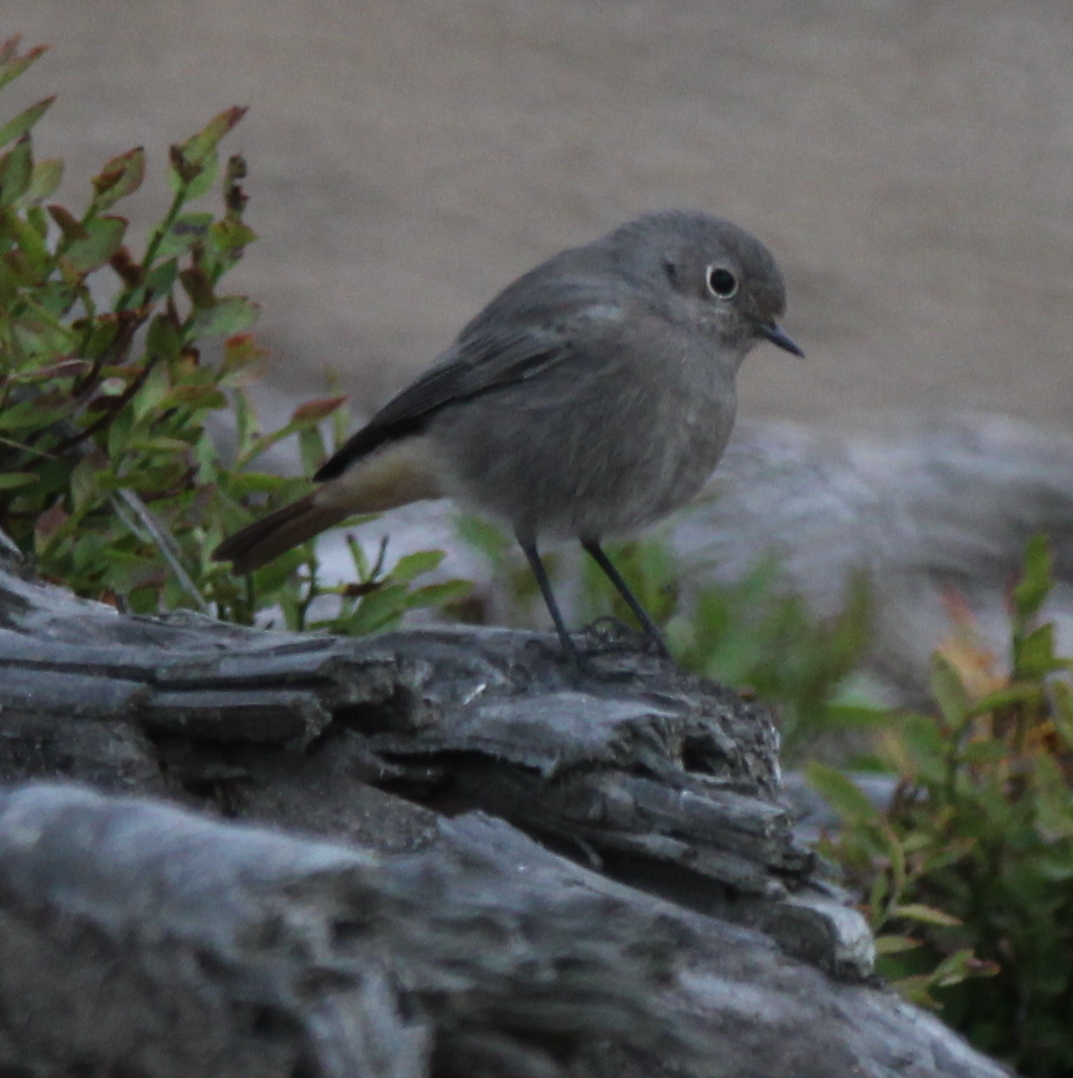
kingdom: Animalia
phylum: Chordata
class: Aves
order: Passeriformes
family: Muscicapidae
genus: Phoenicurus
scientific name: Phoenicurus ochruros
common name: Black redstart
